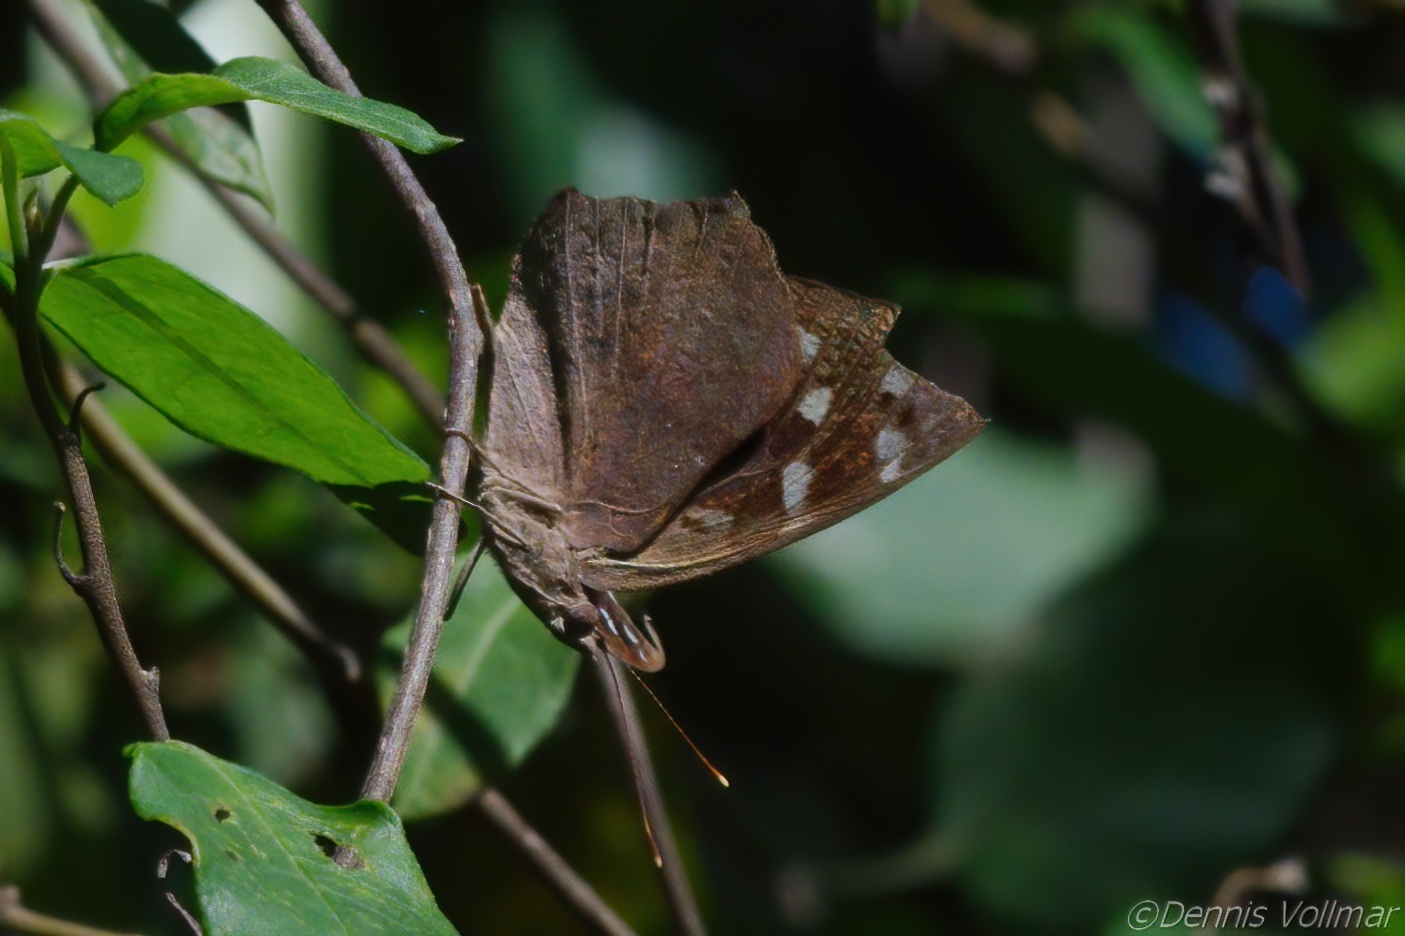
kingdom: Animalia
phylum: Arthropoda
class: Insecta
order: Lepidoptera
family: Nymphalidae
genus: Eunica
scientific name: Eunica tatila
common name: Florida purplewing
